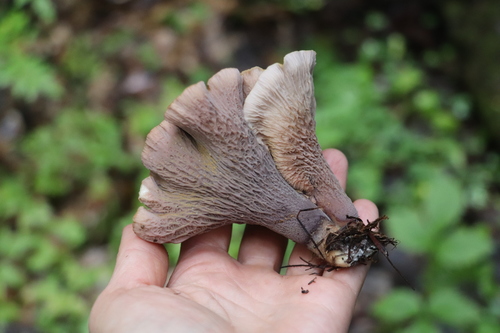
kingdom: Fungi
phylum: Basidiomycota
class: Agaricomycetes
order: Gomphales
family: Gomphaceae
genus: Gomphus
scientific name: Gomphus clavatus
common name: Pig's ear
